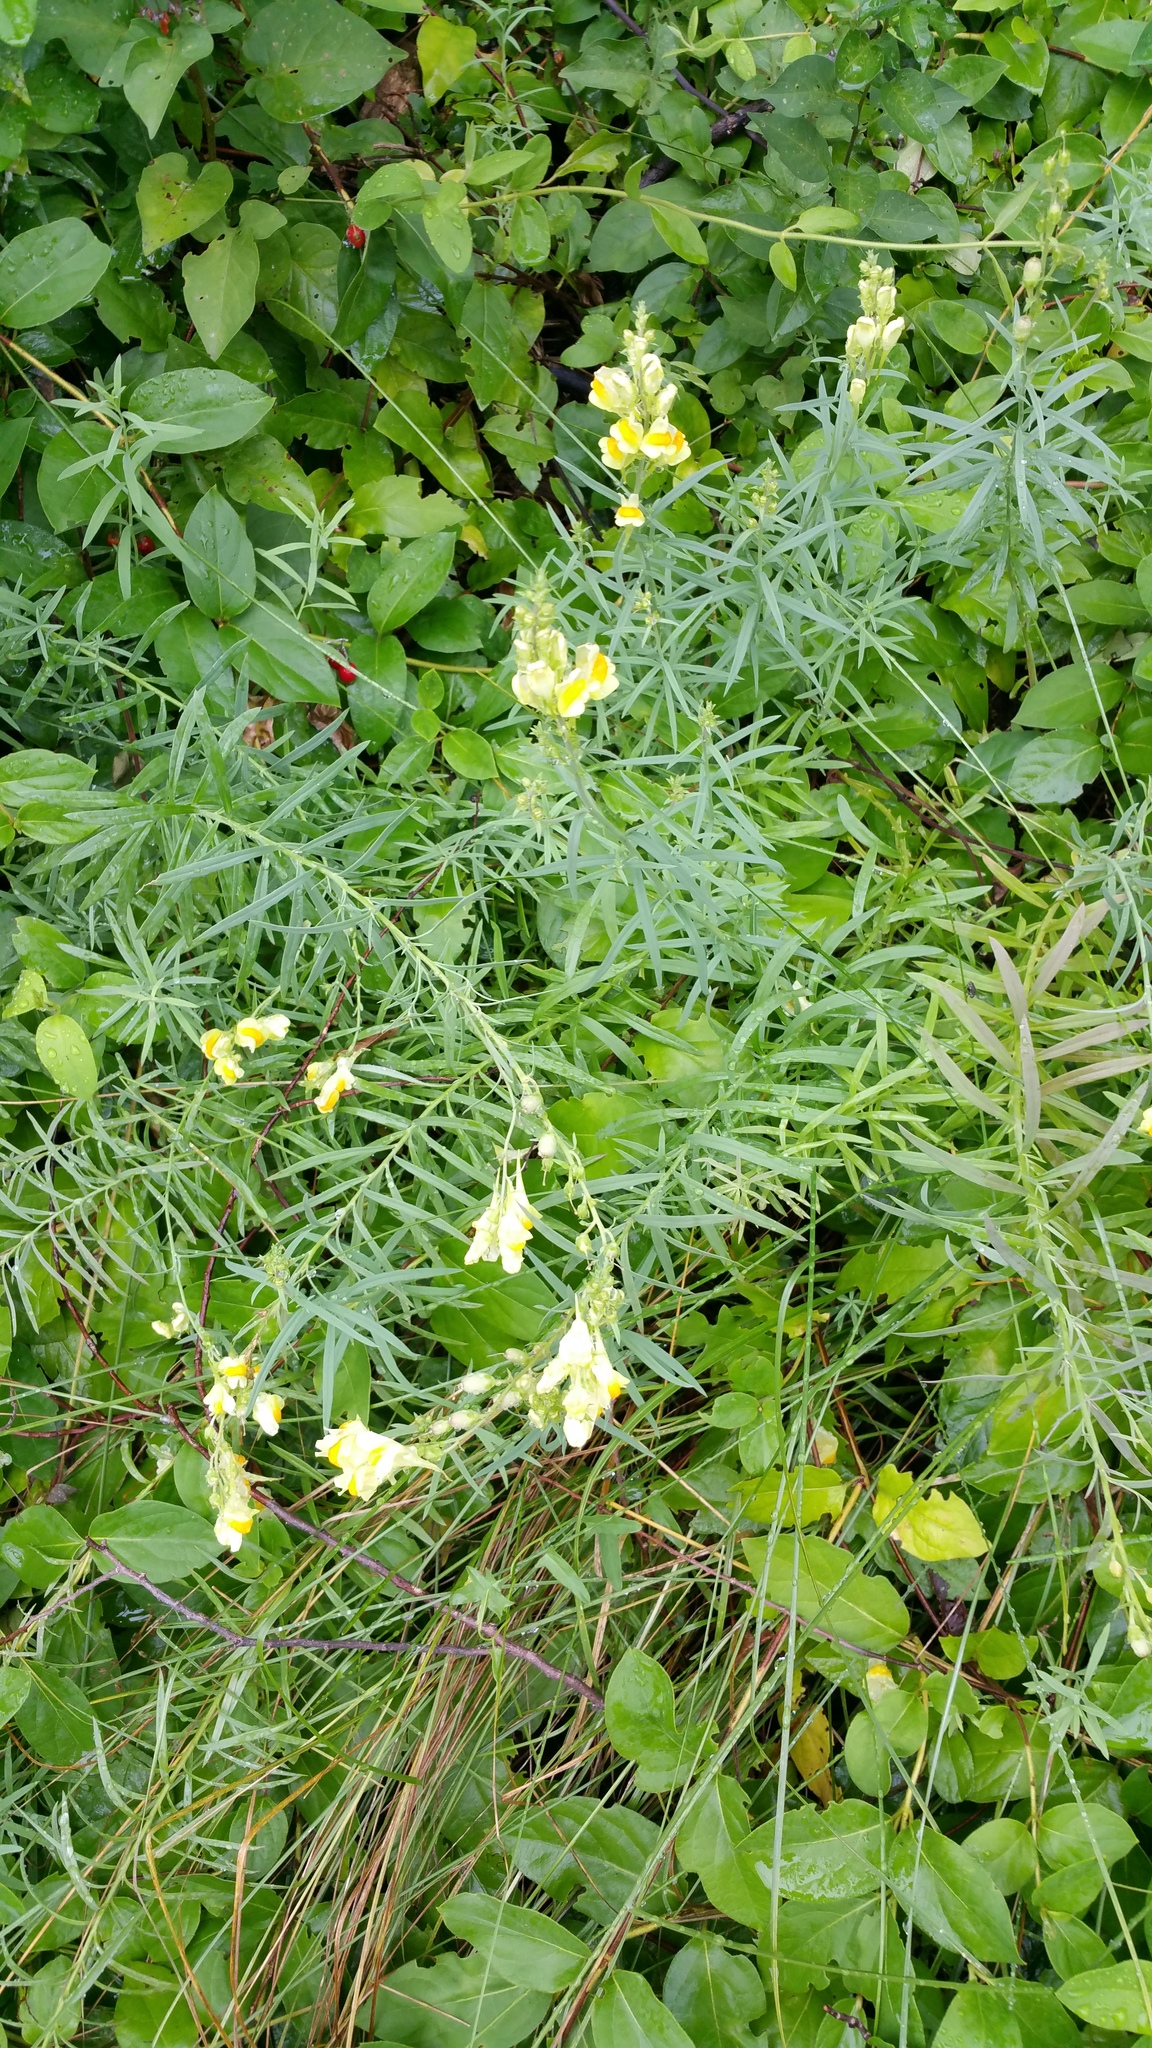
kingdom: Plantae
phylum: Tracheophyta
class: Magnoliopsida
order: Lamiales
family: Plantaginaceae
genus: Linaria
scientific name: Linaria vulgaris
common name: Butter and eggs
